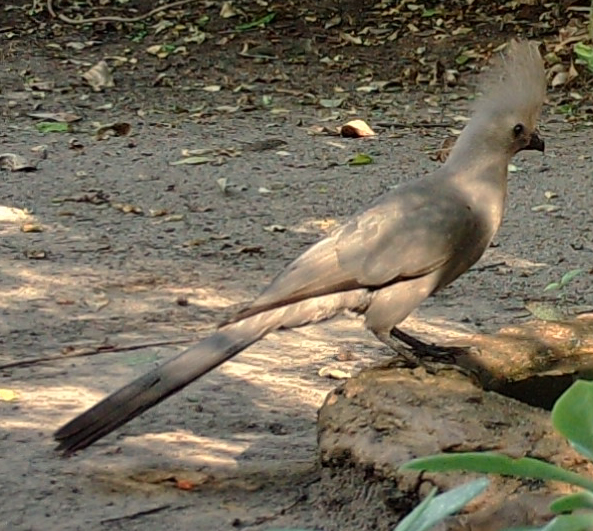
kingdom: Animalia
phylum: Chordata
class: Aves
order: Musophagiformes
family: Musophagidae
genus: Corythaixoides
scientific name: Corythaixoides concolor
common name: Grey go-away-bird
